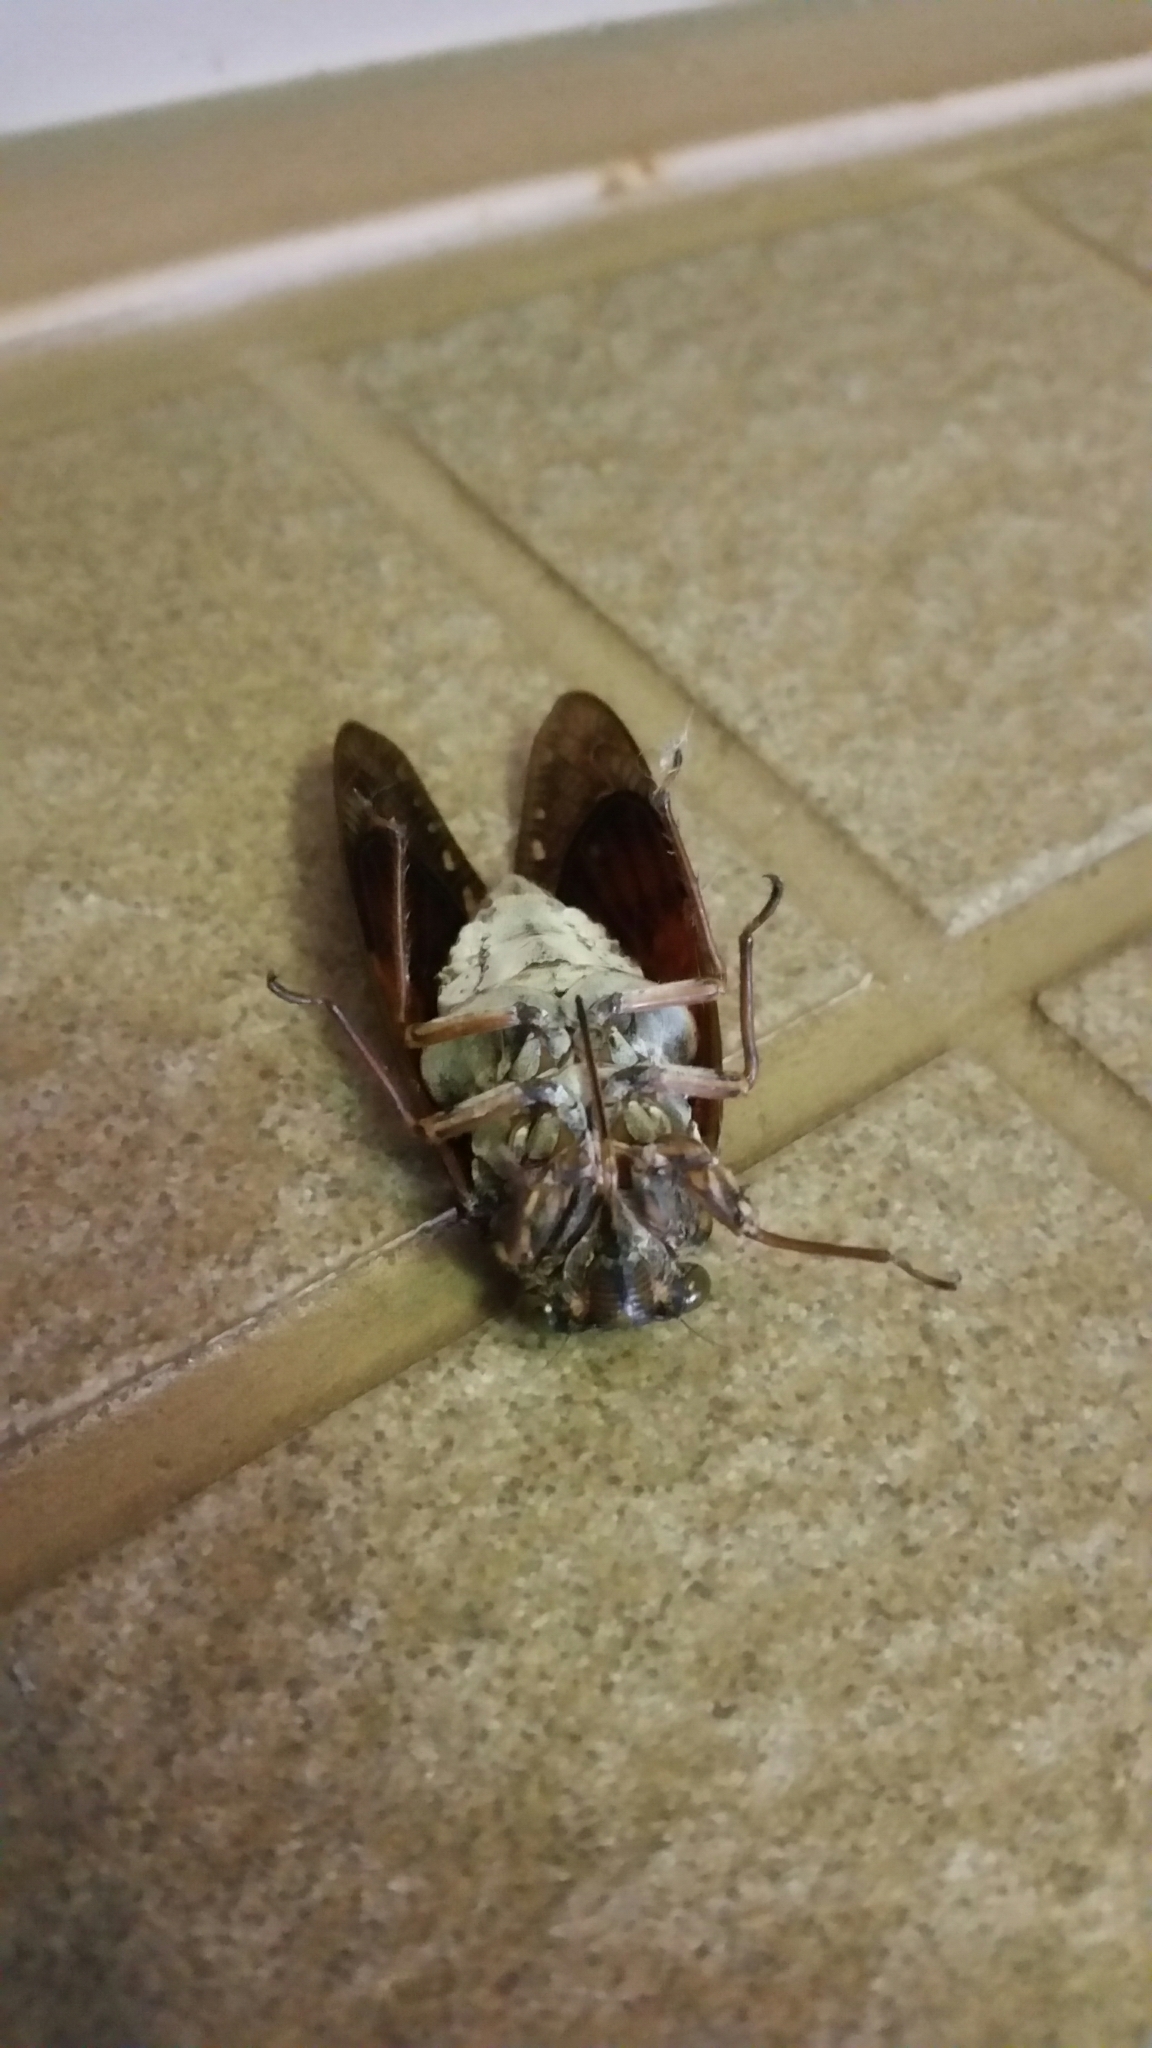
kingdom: Animalia
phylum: Arthropoda
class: Insecta
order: Hemiptera
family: Cicadidae
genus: Graptopsaltria
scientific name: Graptopsaltria nigrofuscata
